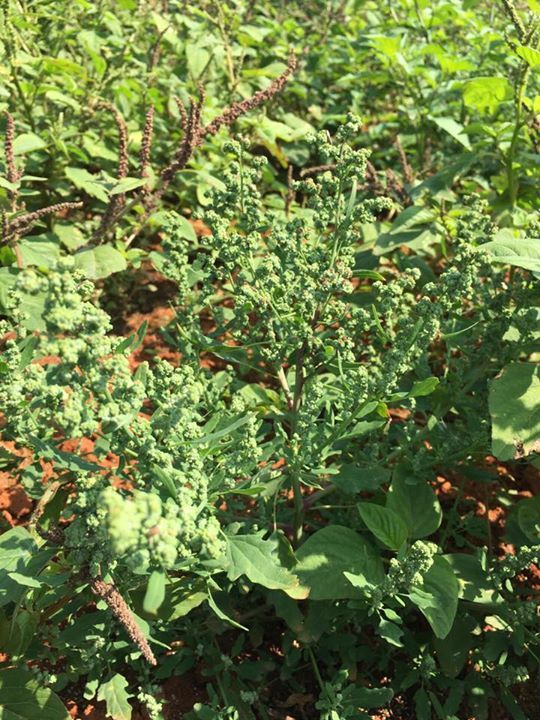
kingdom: Plantae
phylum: Tracheophyta
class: Magnoliopsida
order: Caryophyllales
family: Amaranthaceae
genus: Chenopodium
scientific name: Chenopodium ficifolium
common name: Fig-leaved goosefoot
